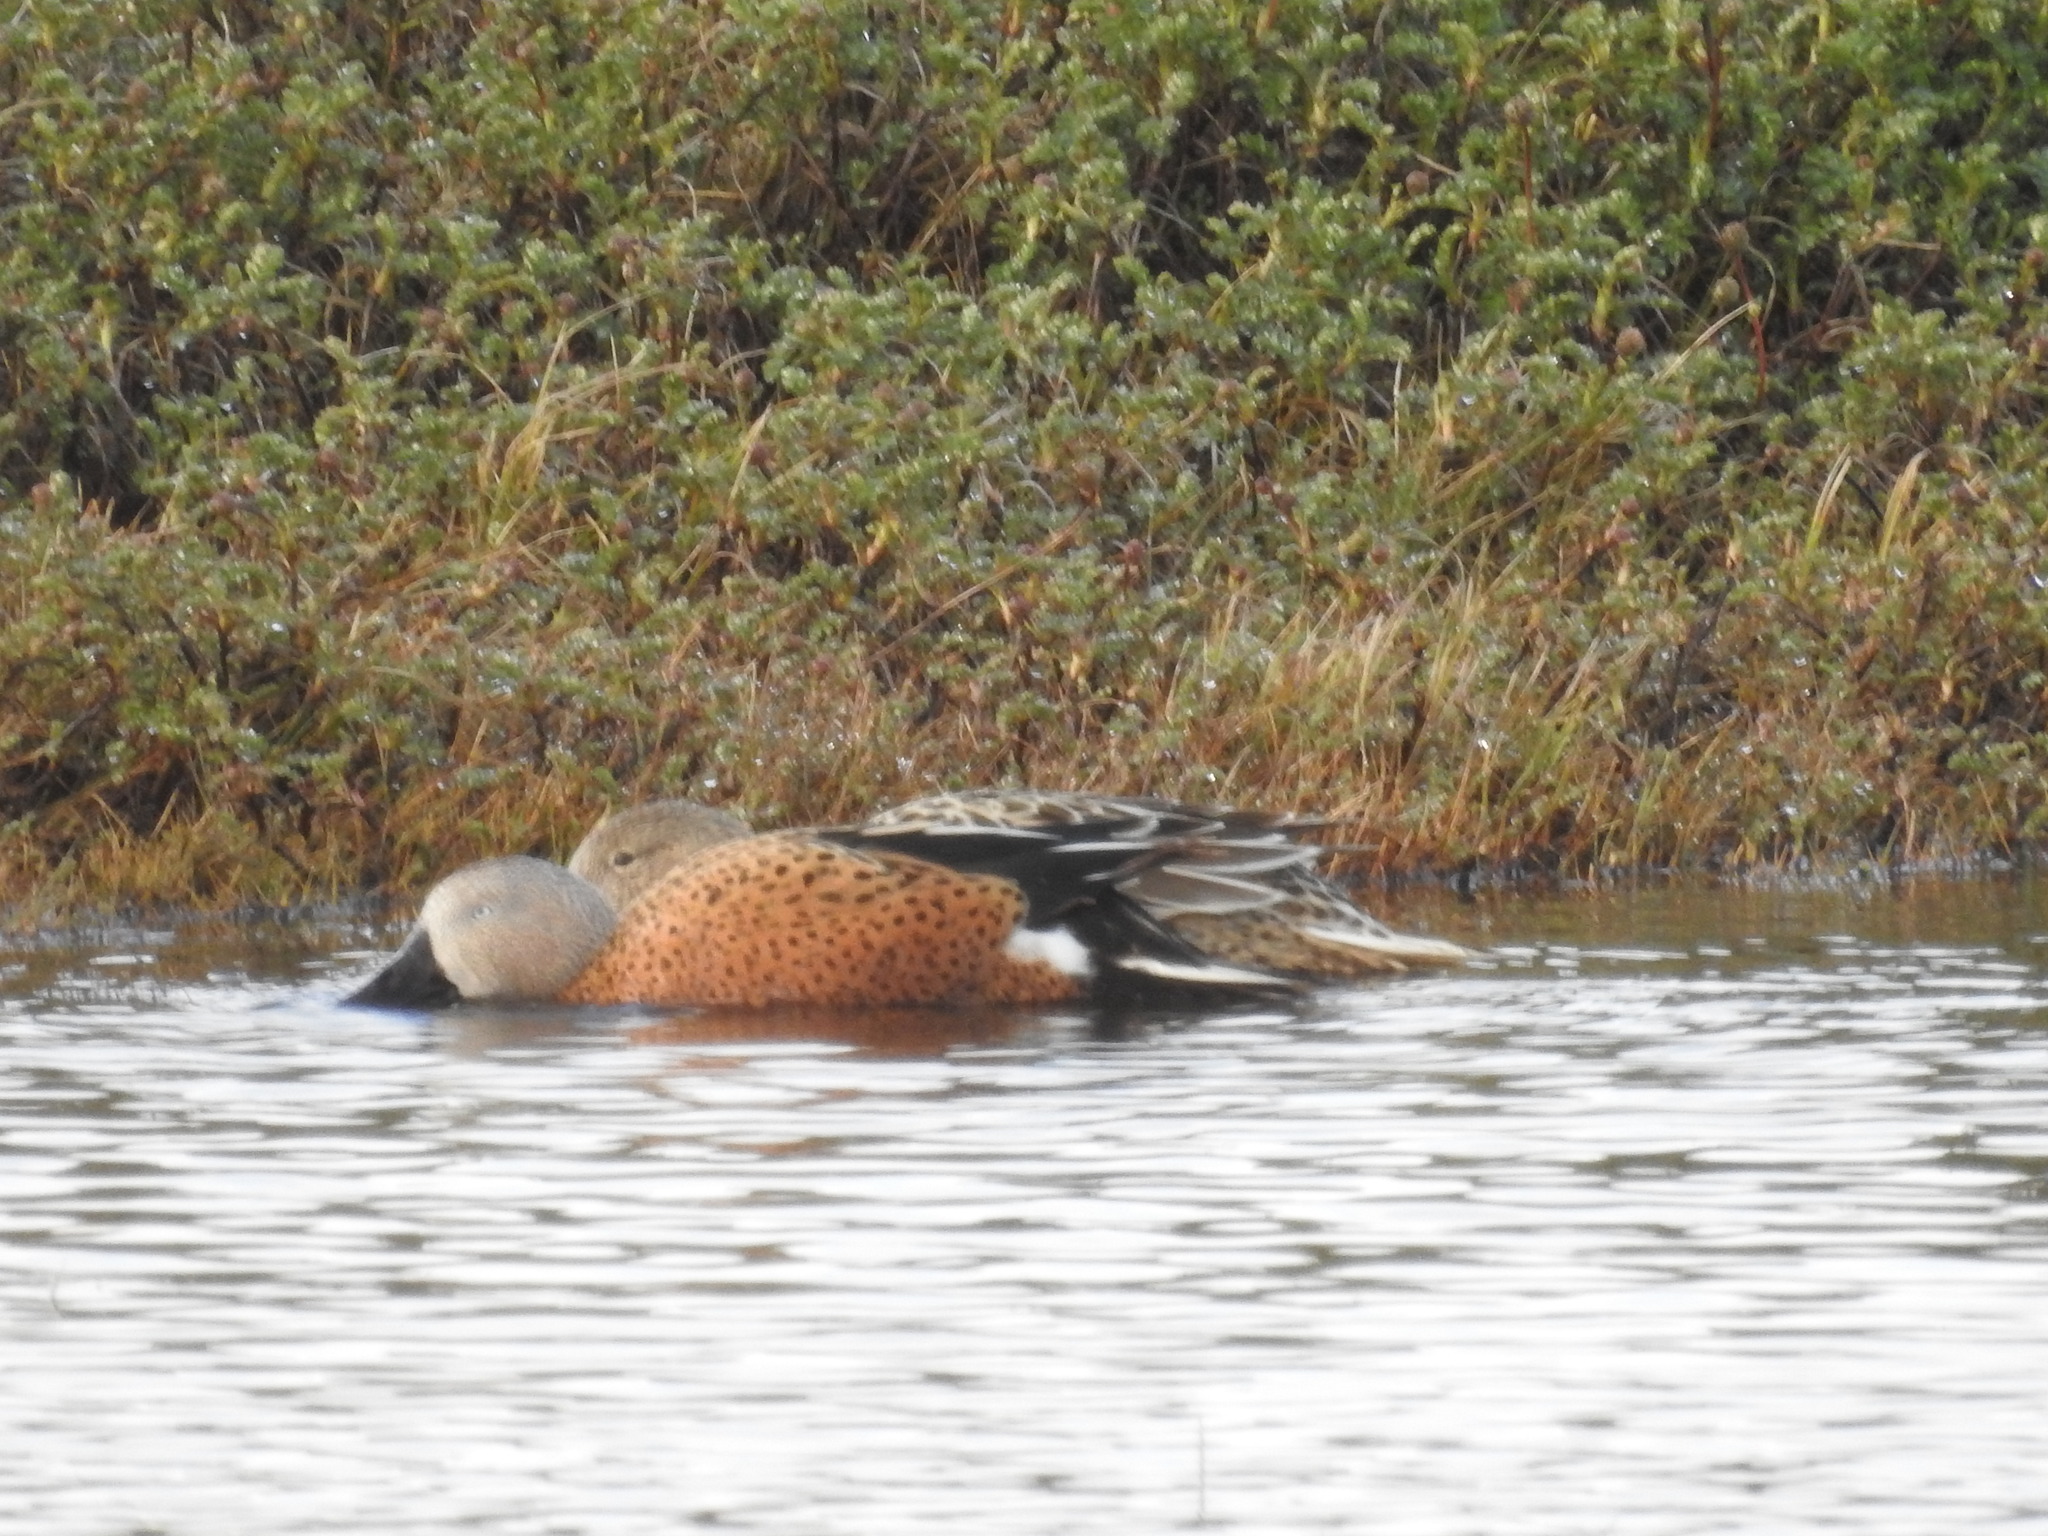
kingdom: Animalia
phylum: Chordata
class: Aves
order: Anseriformes
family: Anatidae
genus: Spatula
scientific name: Spatula platalea
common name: Red shoveler
